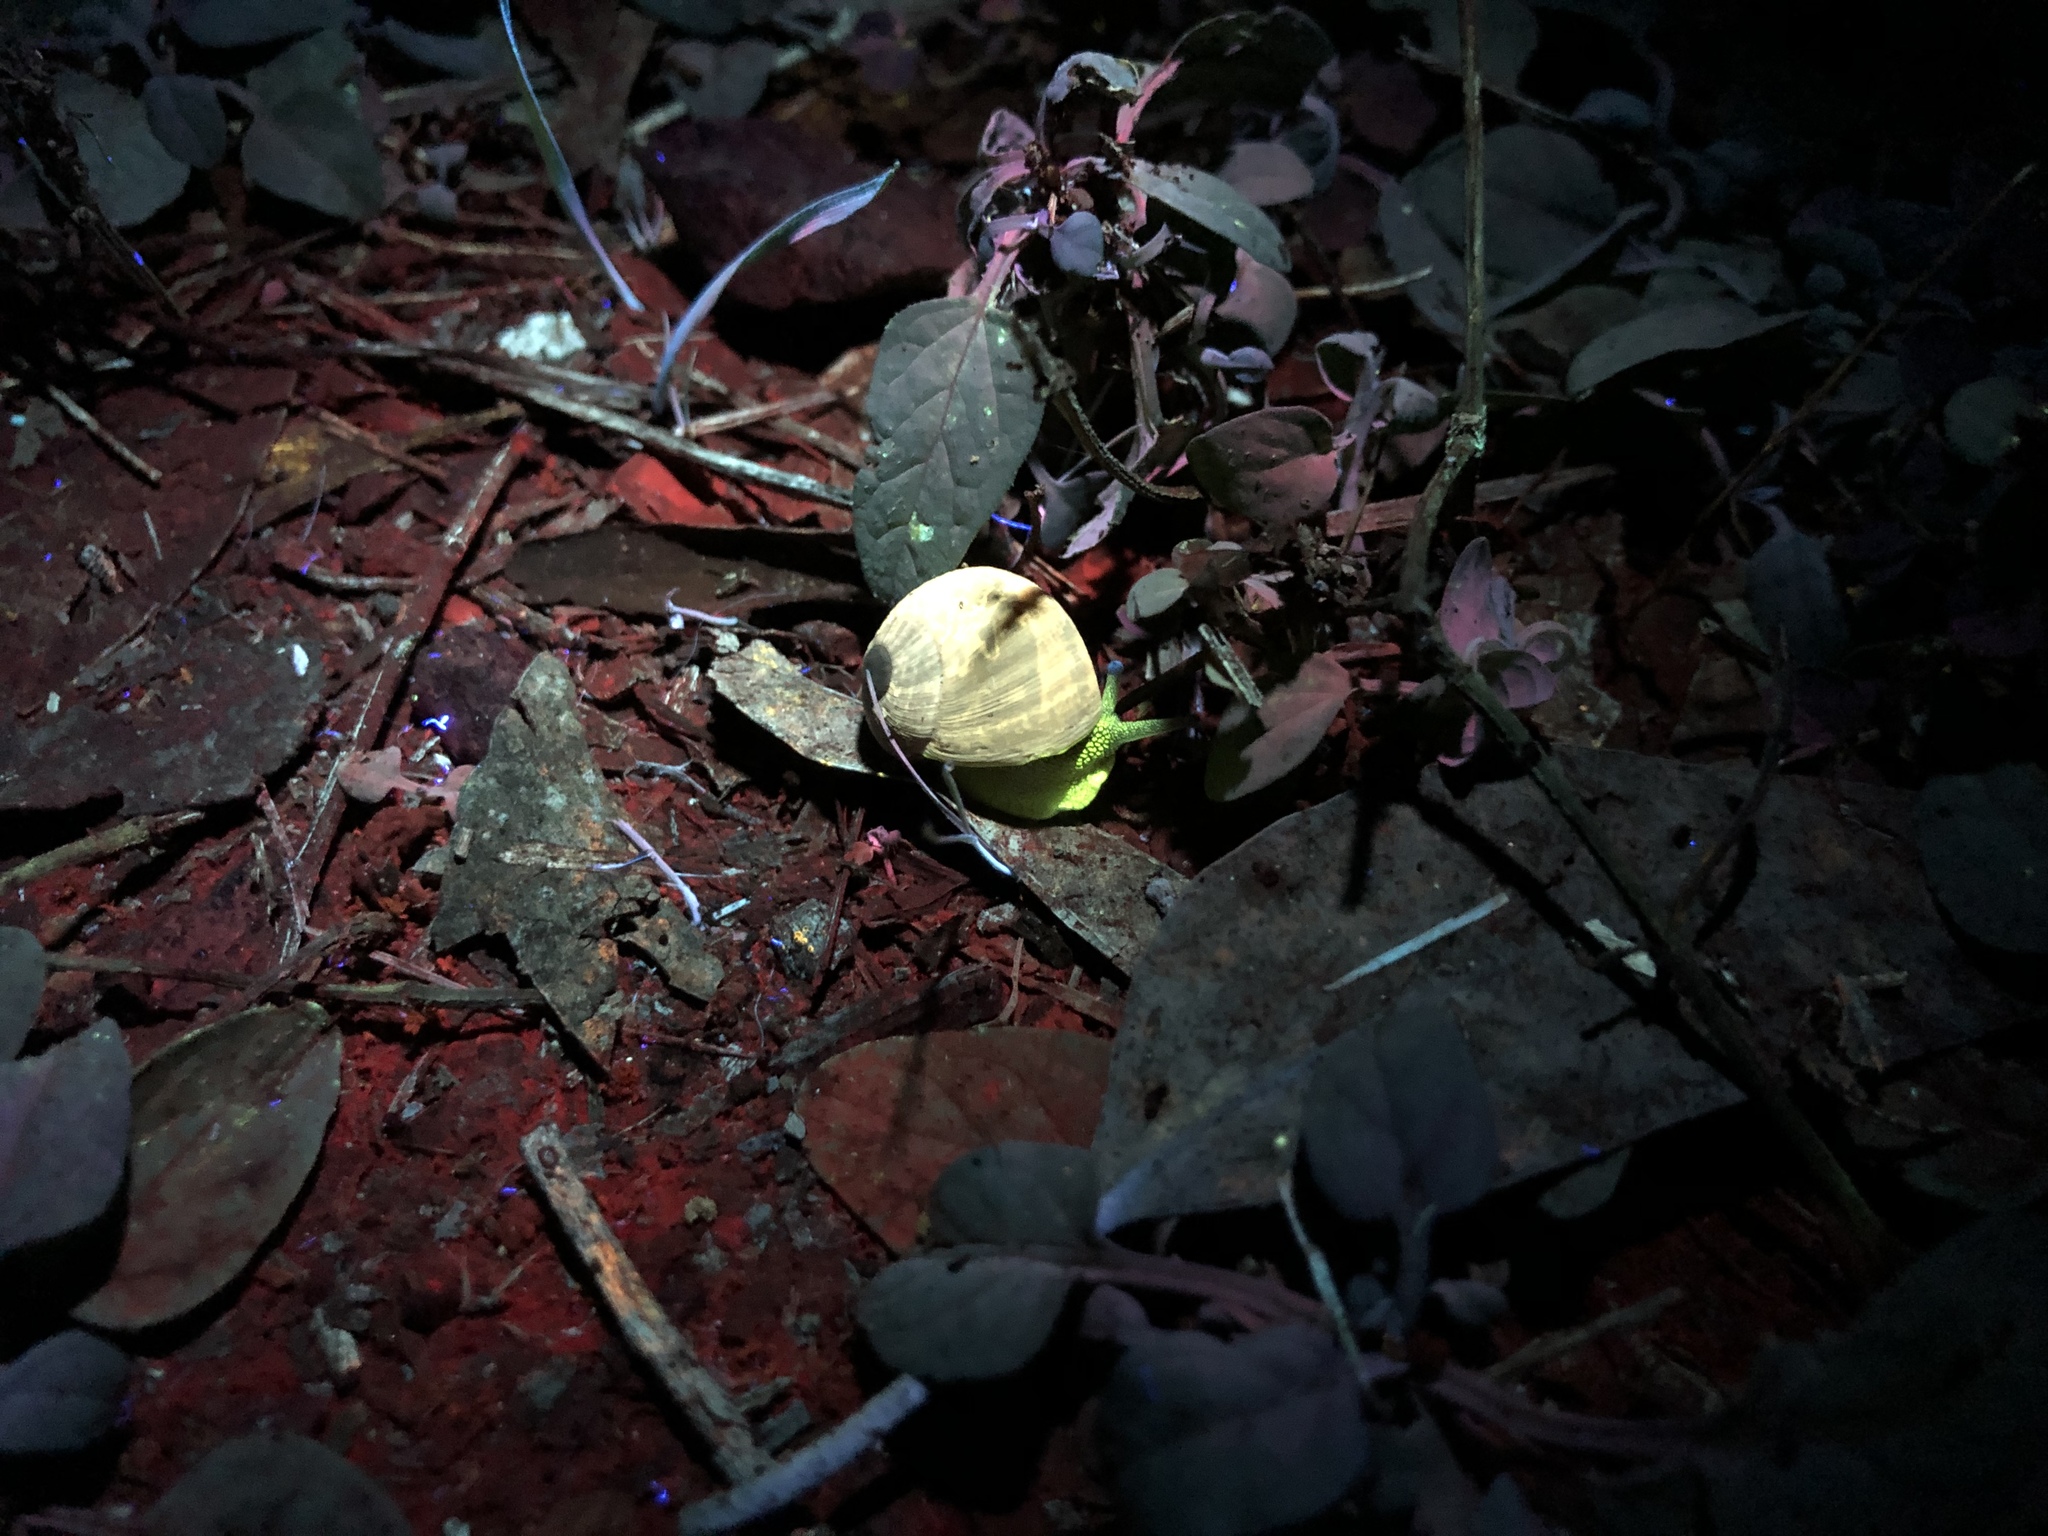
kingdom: Animalia
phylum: Mollusca
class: Gastropoda
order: Stylommatophora
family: Helicidae
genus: Cornu
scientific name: Cornu aspersum
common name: Brown garden snail
